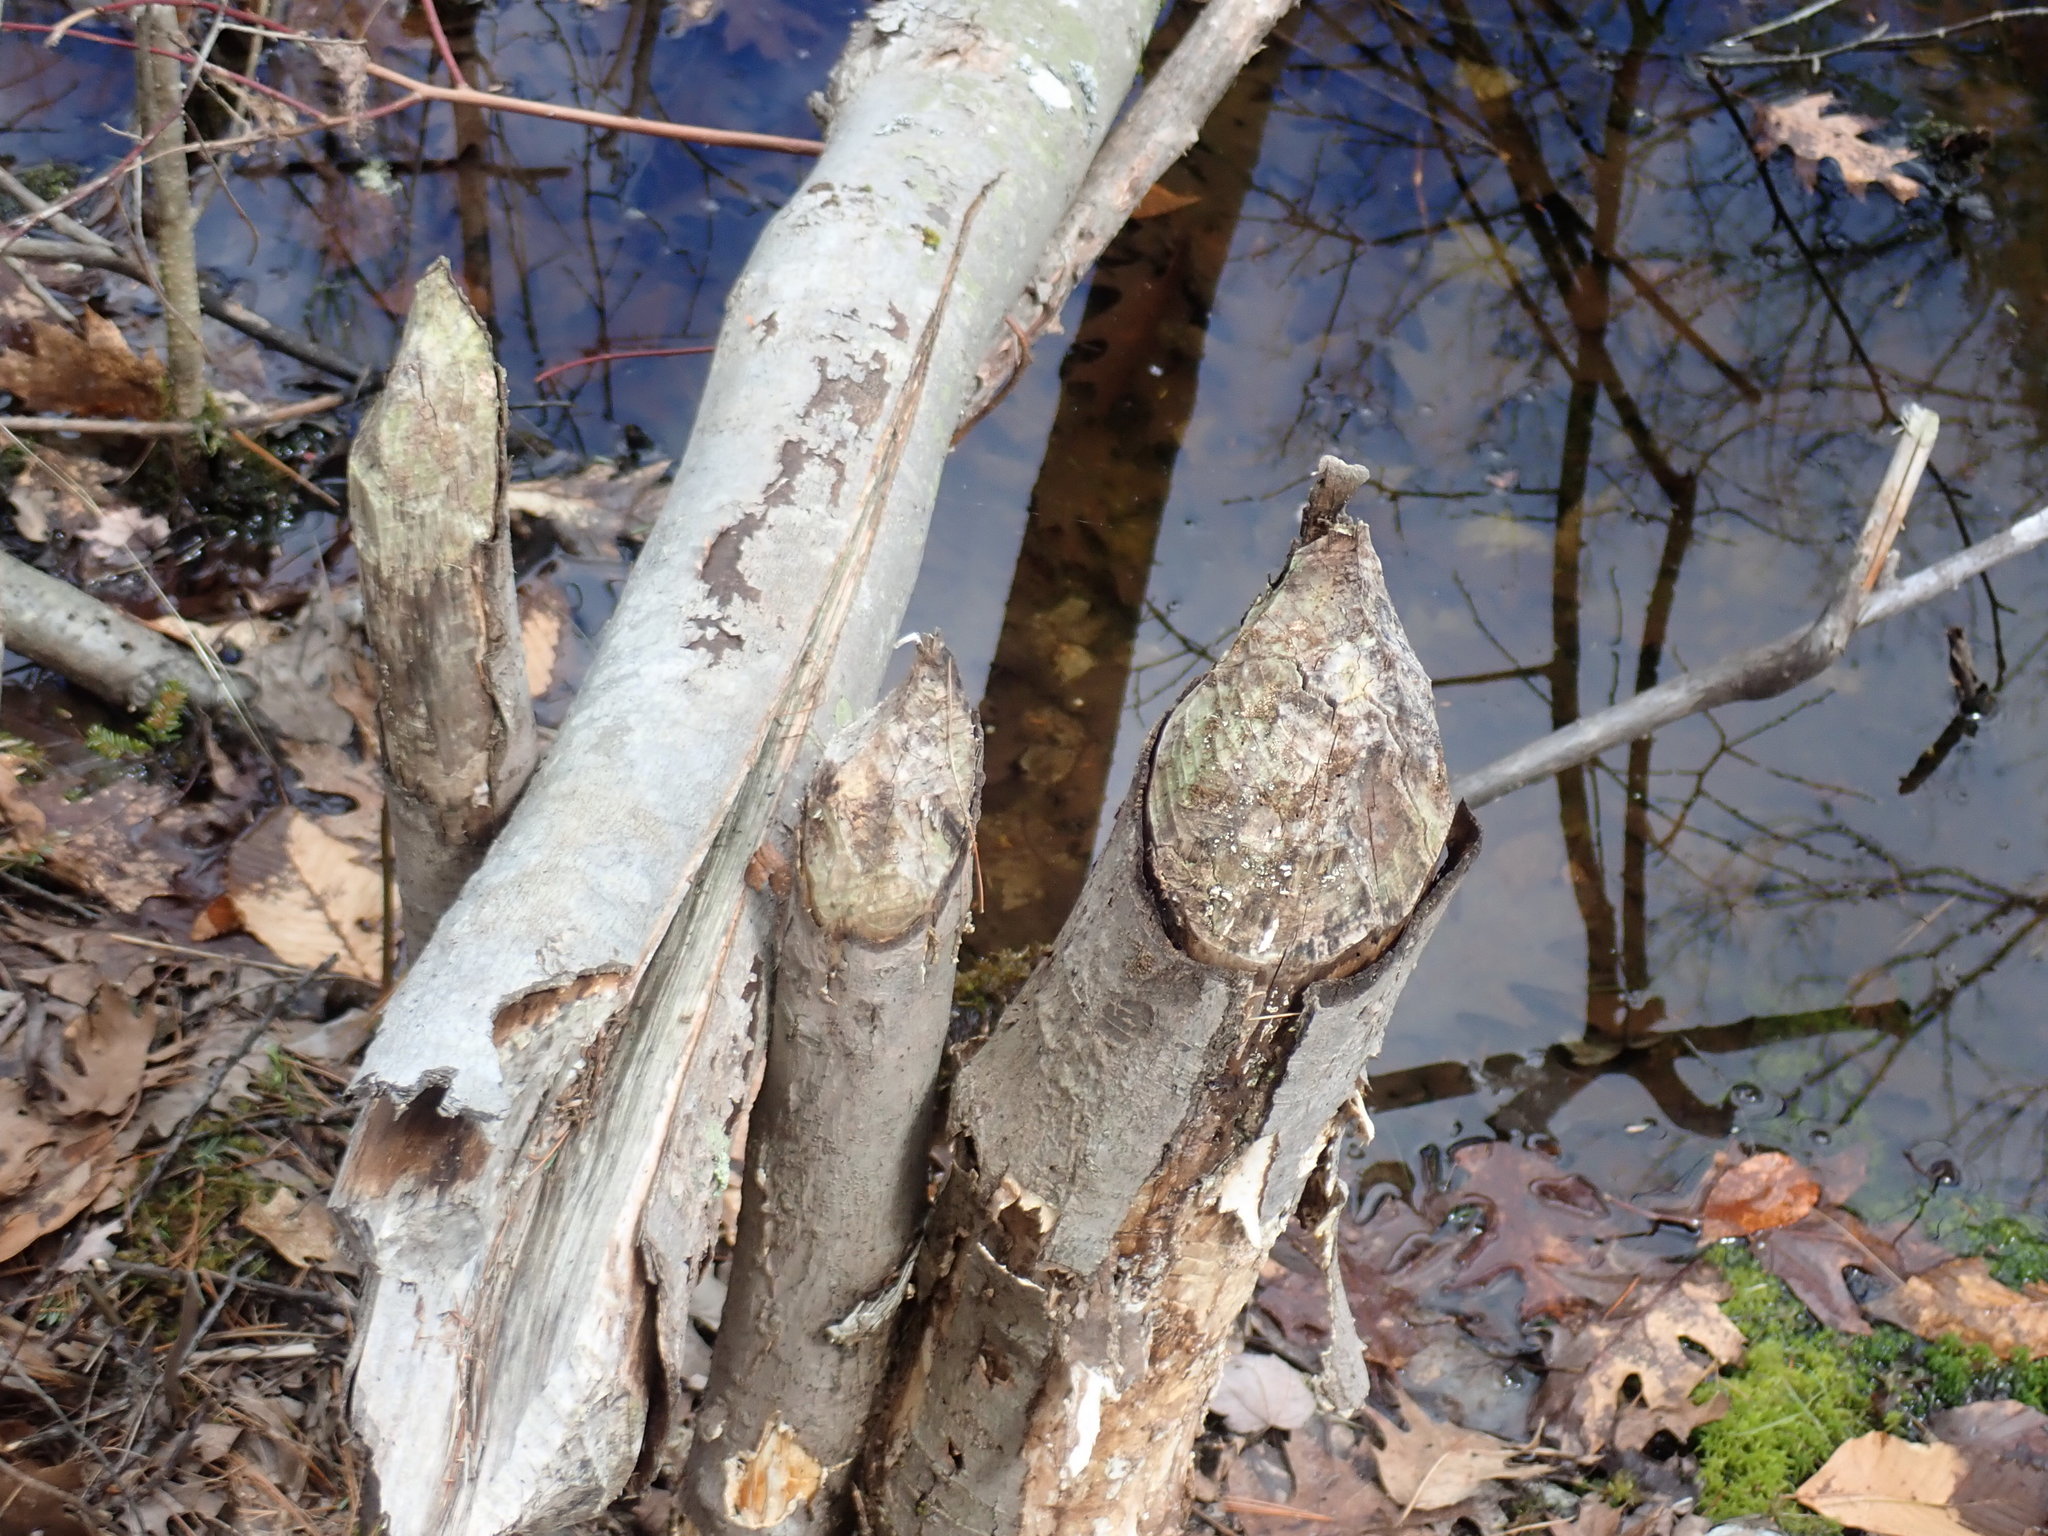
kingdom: Animalia
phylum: Chordata
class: Mammalia
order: Rodentia
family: Castoridae
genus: Castor
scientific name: Castor canadensis
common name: American beaver
